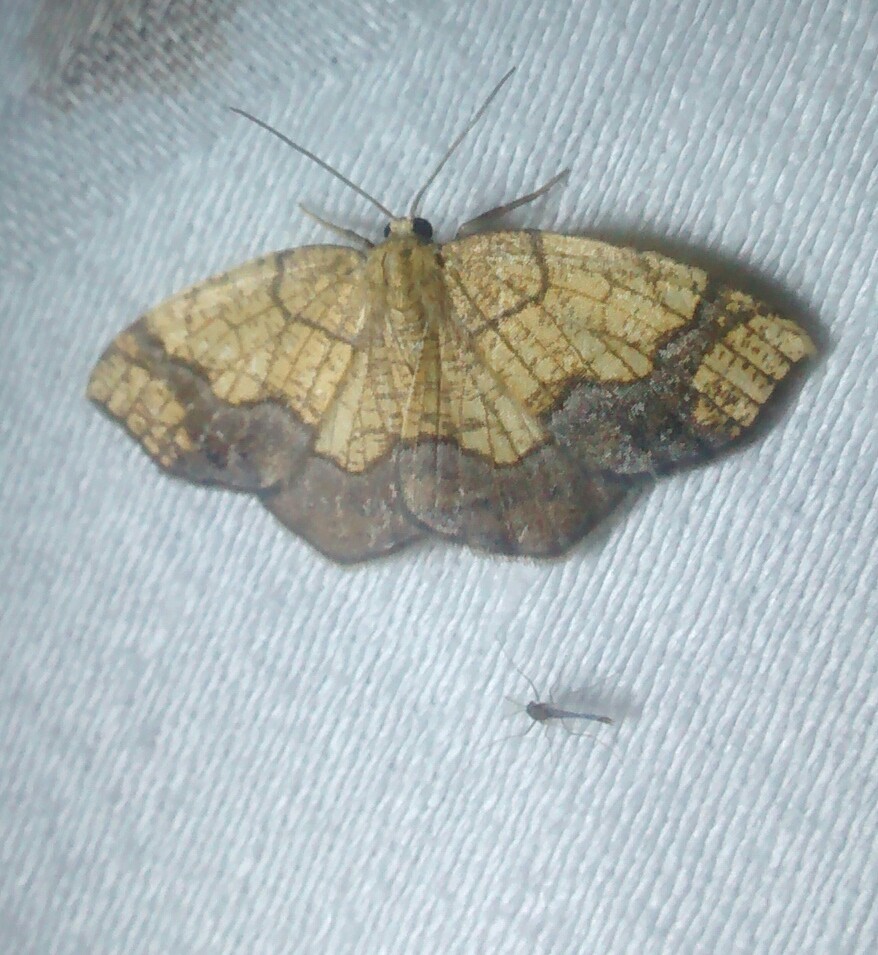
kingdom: Animalia
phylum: Arthropoda
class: Insecta
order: Lepidoptera
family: Geometridae
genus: Nematocampa
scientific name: Nematocampa resistaria
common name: Horned spanworm moth
